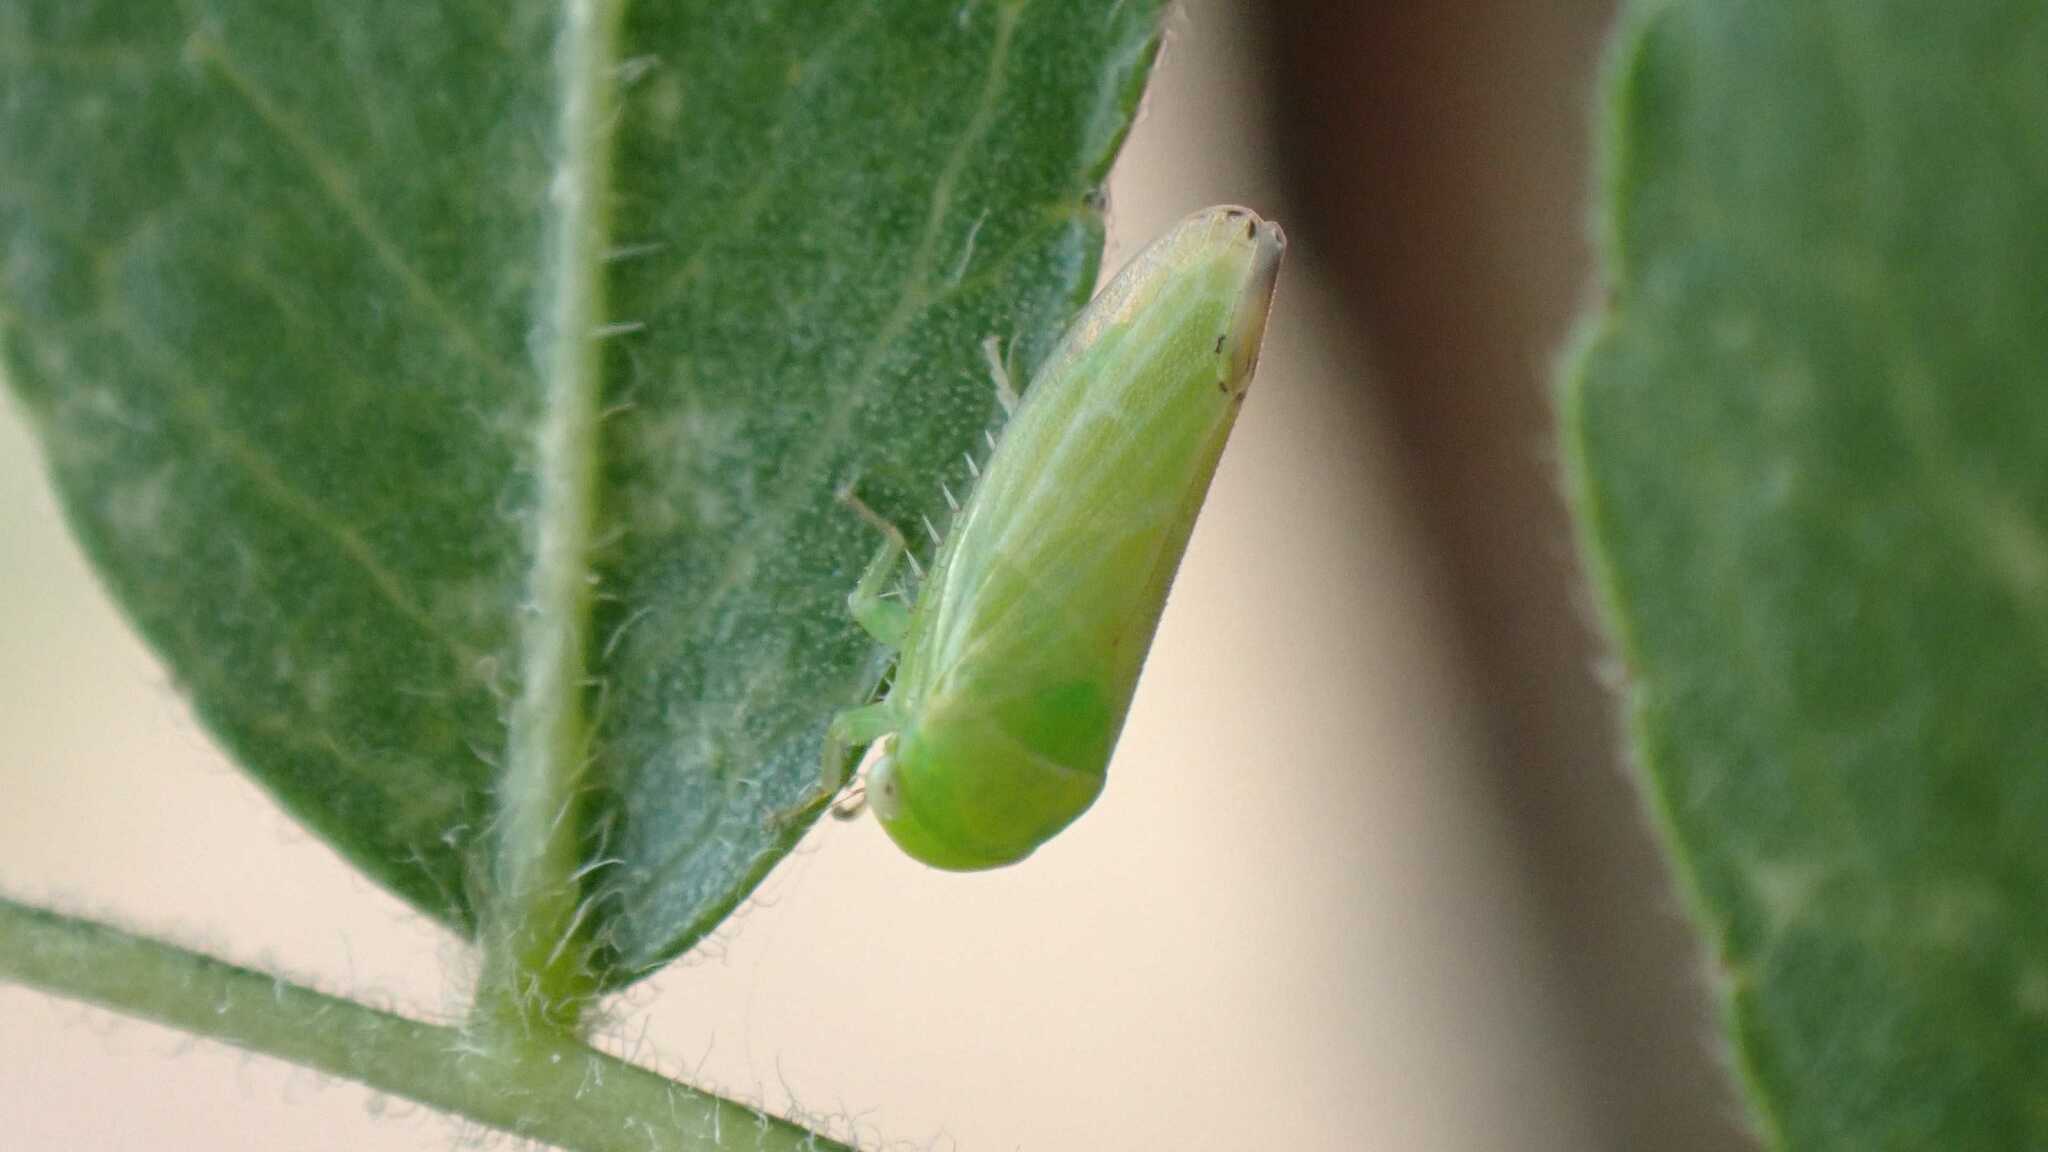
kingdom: Animalia
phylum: Arthropoda
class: Insecta
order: Hemiptera
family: Cicadellidae
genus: Stragania
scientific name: Stragania apicalis
